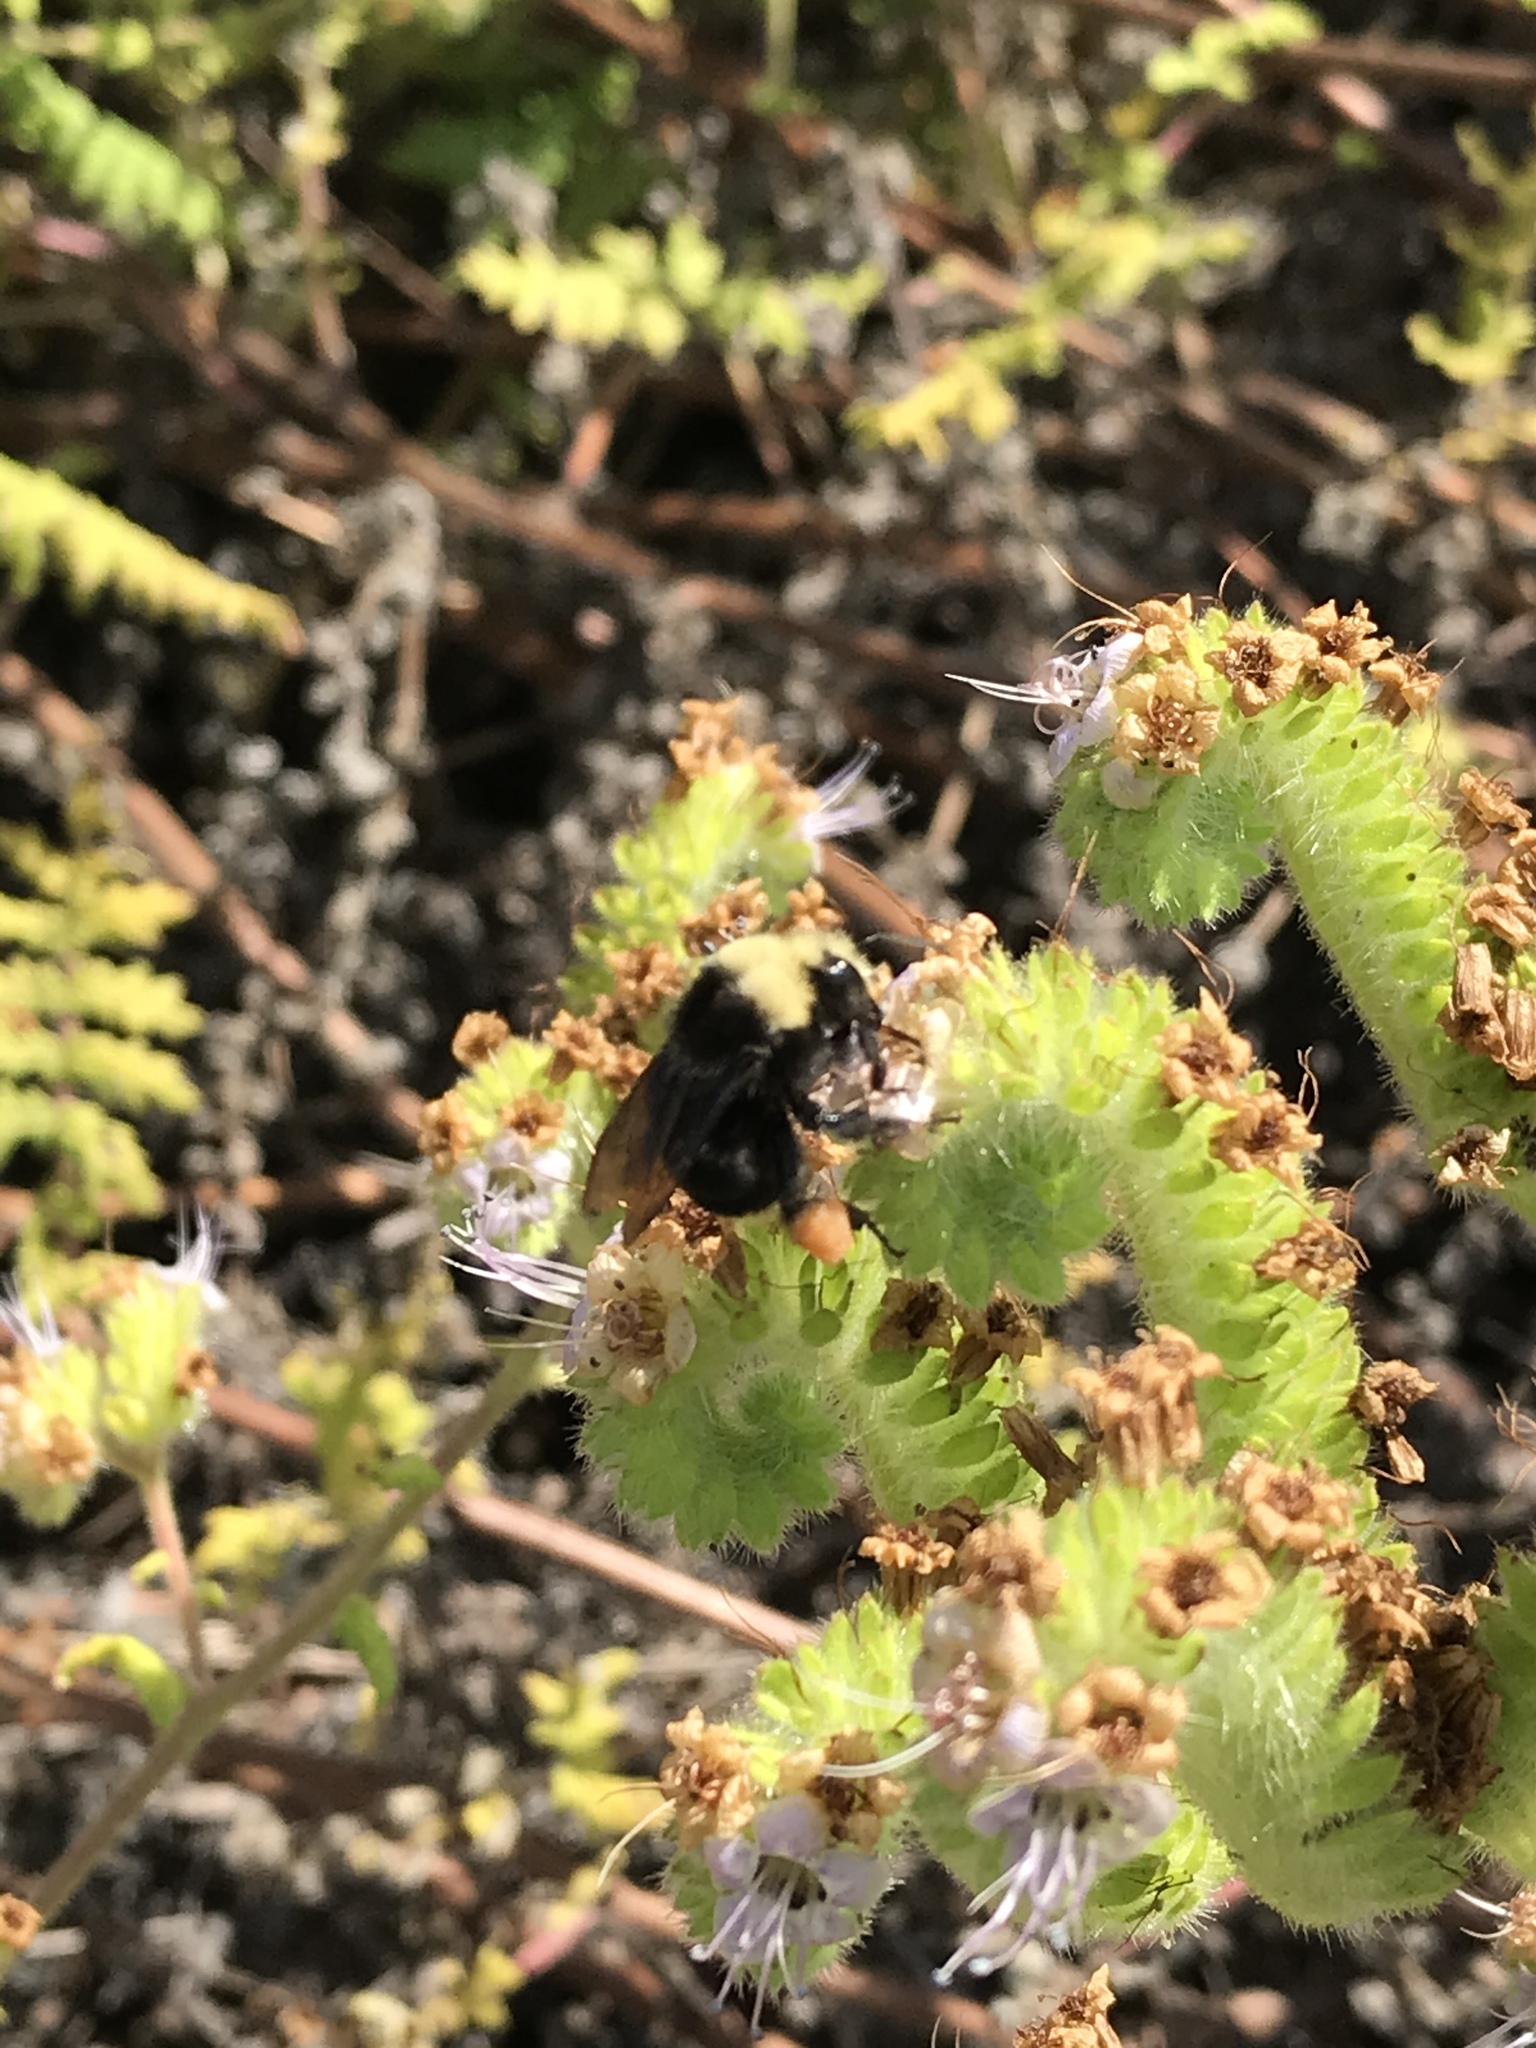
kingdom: Animalia
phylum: Arthropoda
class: Insecta
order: Hymenoptera
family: Apidae
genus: Bombus
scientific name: Bombus vosnesenskii
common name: Vosnesensky bumble bee
